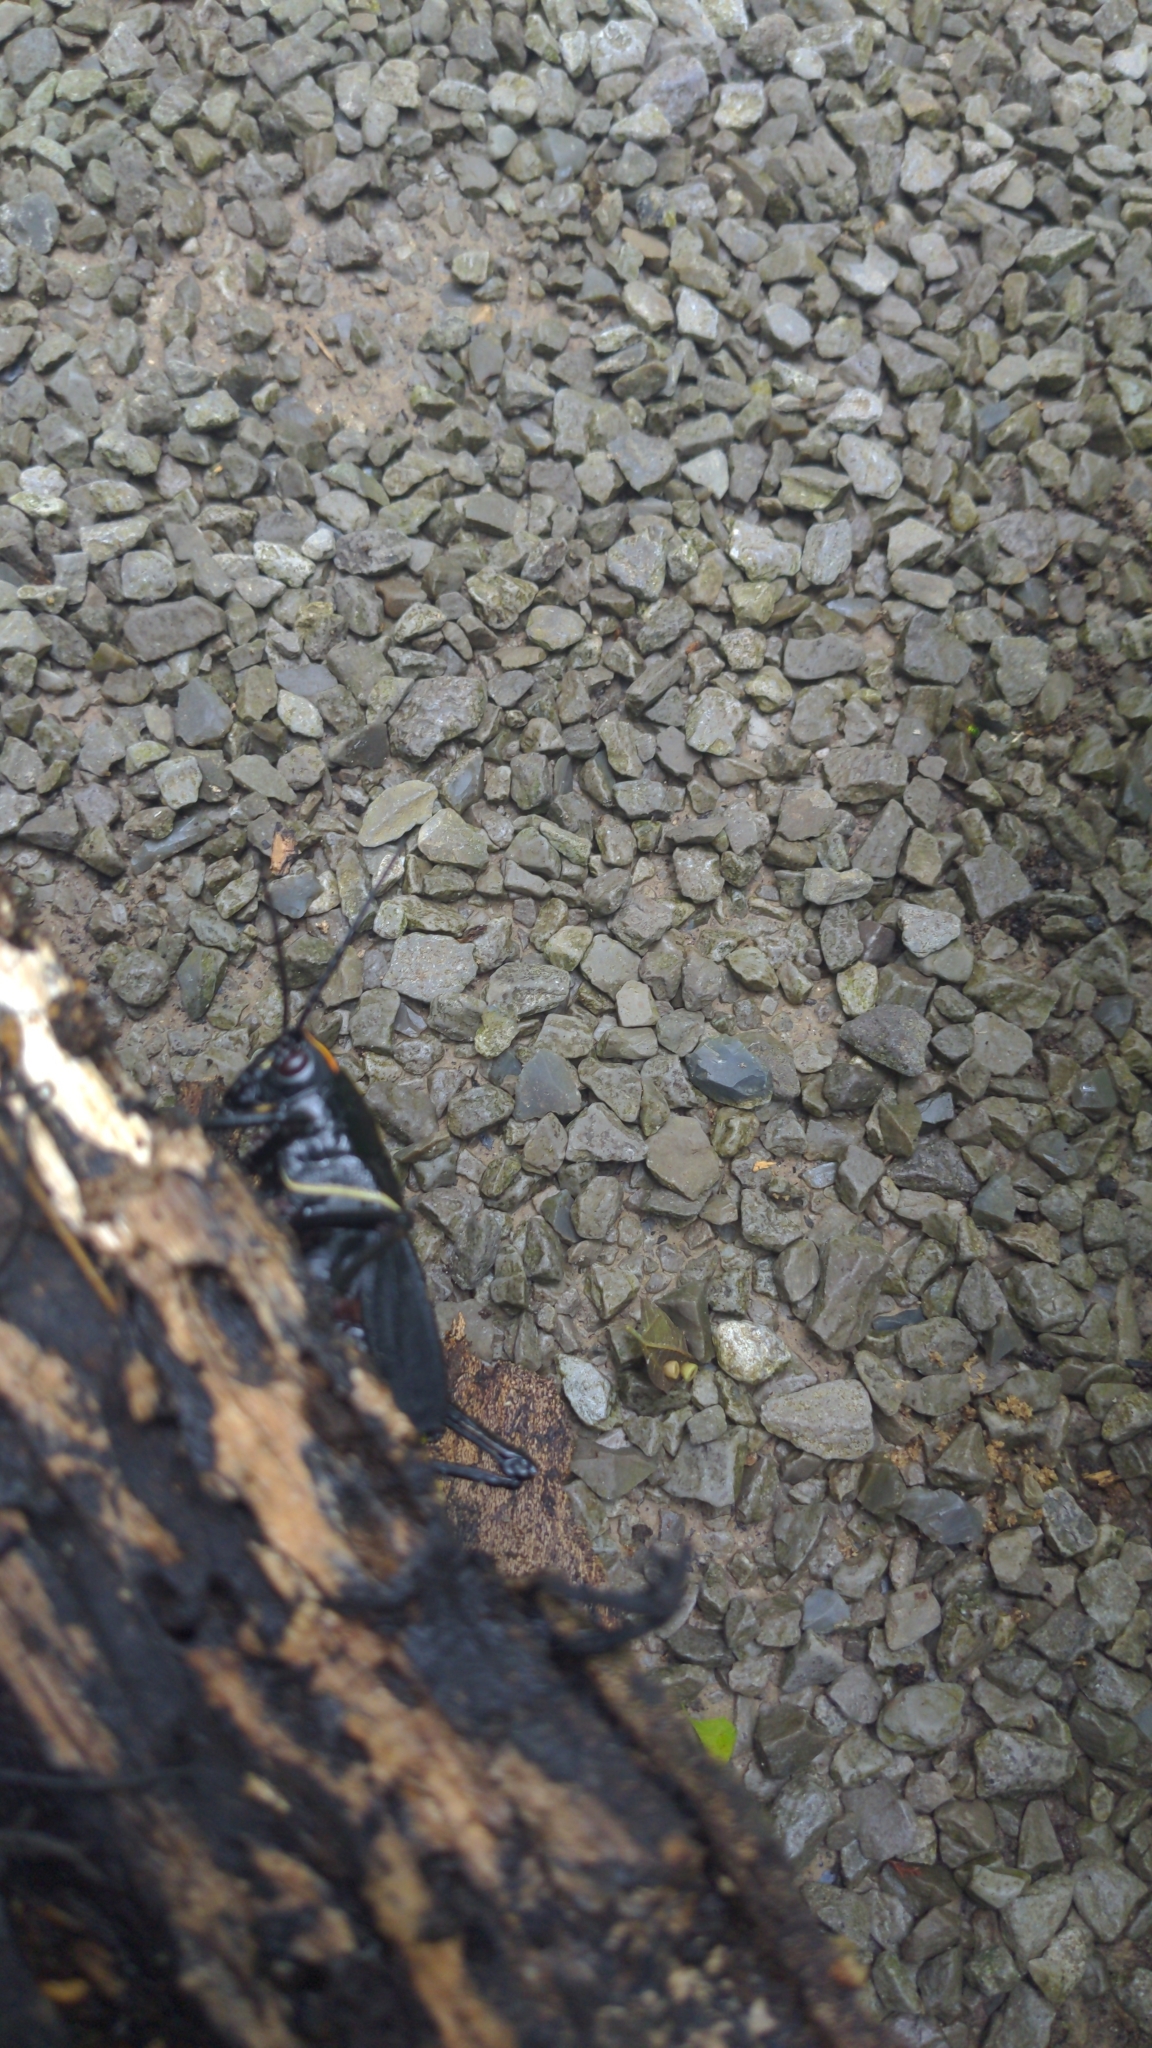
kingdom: Animalia
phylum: Arthropoda
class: Insecta
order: Orthoptera
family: Romaleidae
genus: Romalea
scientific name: Romalea microptera
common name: Eastern lubber grasshopper
